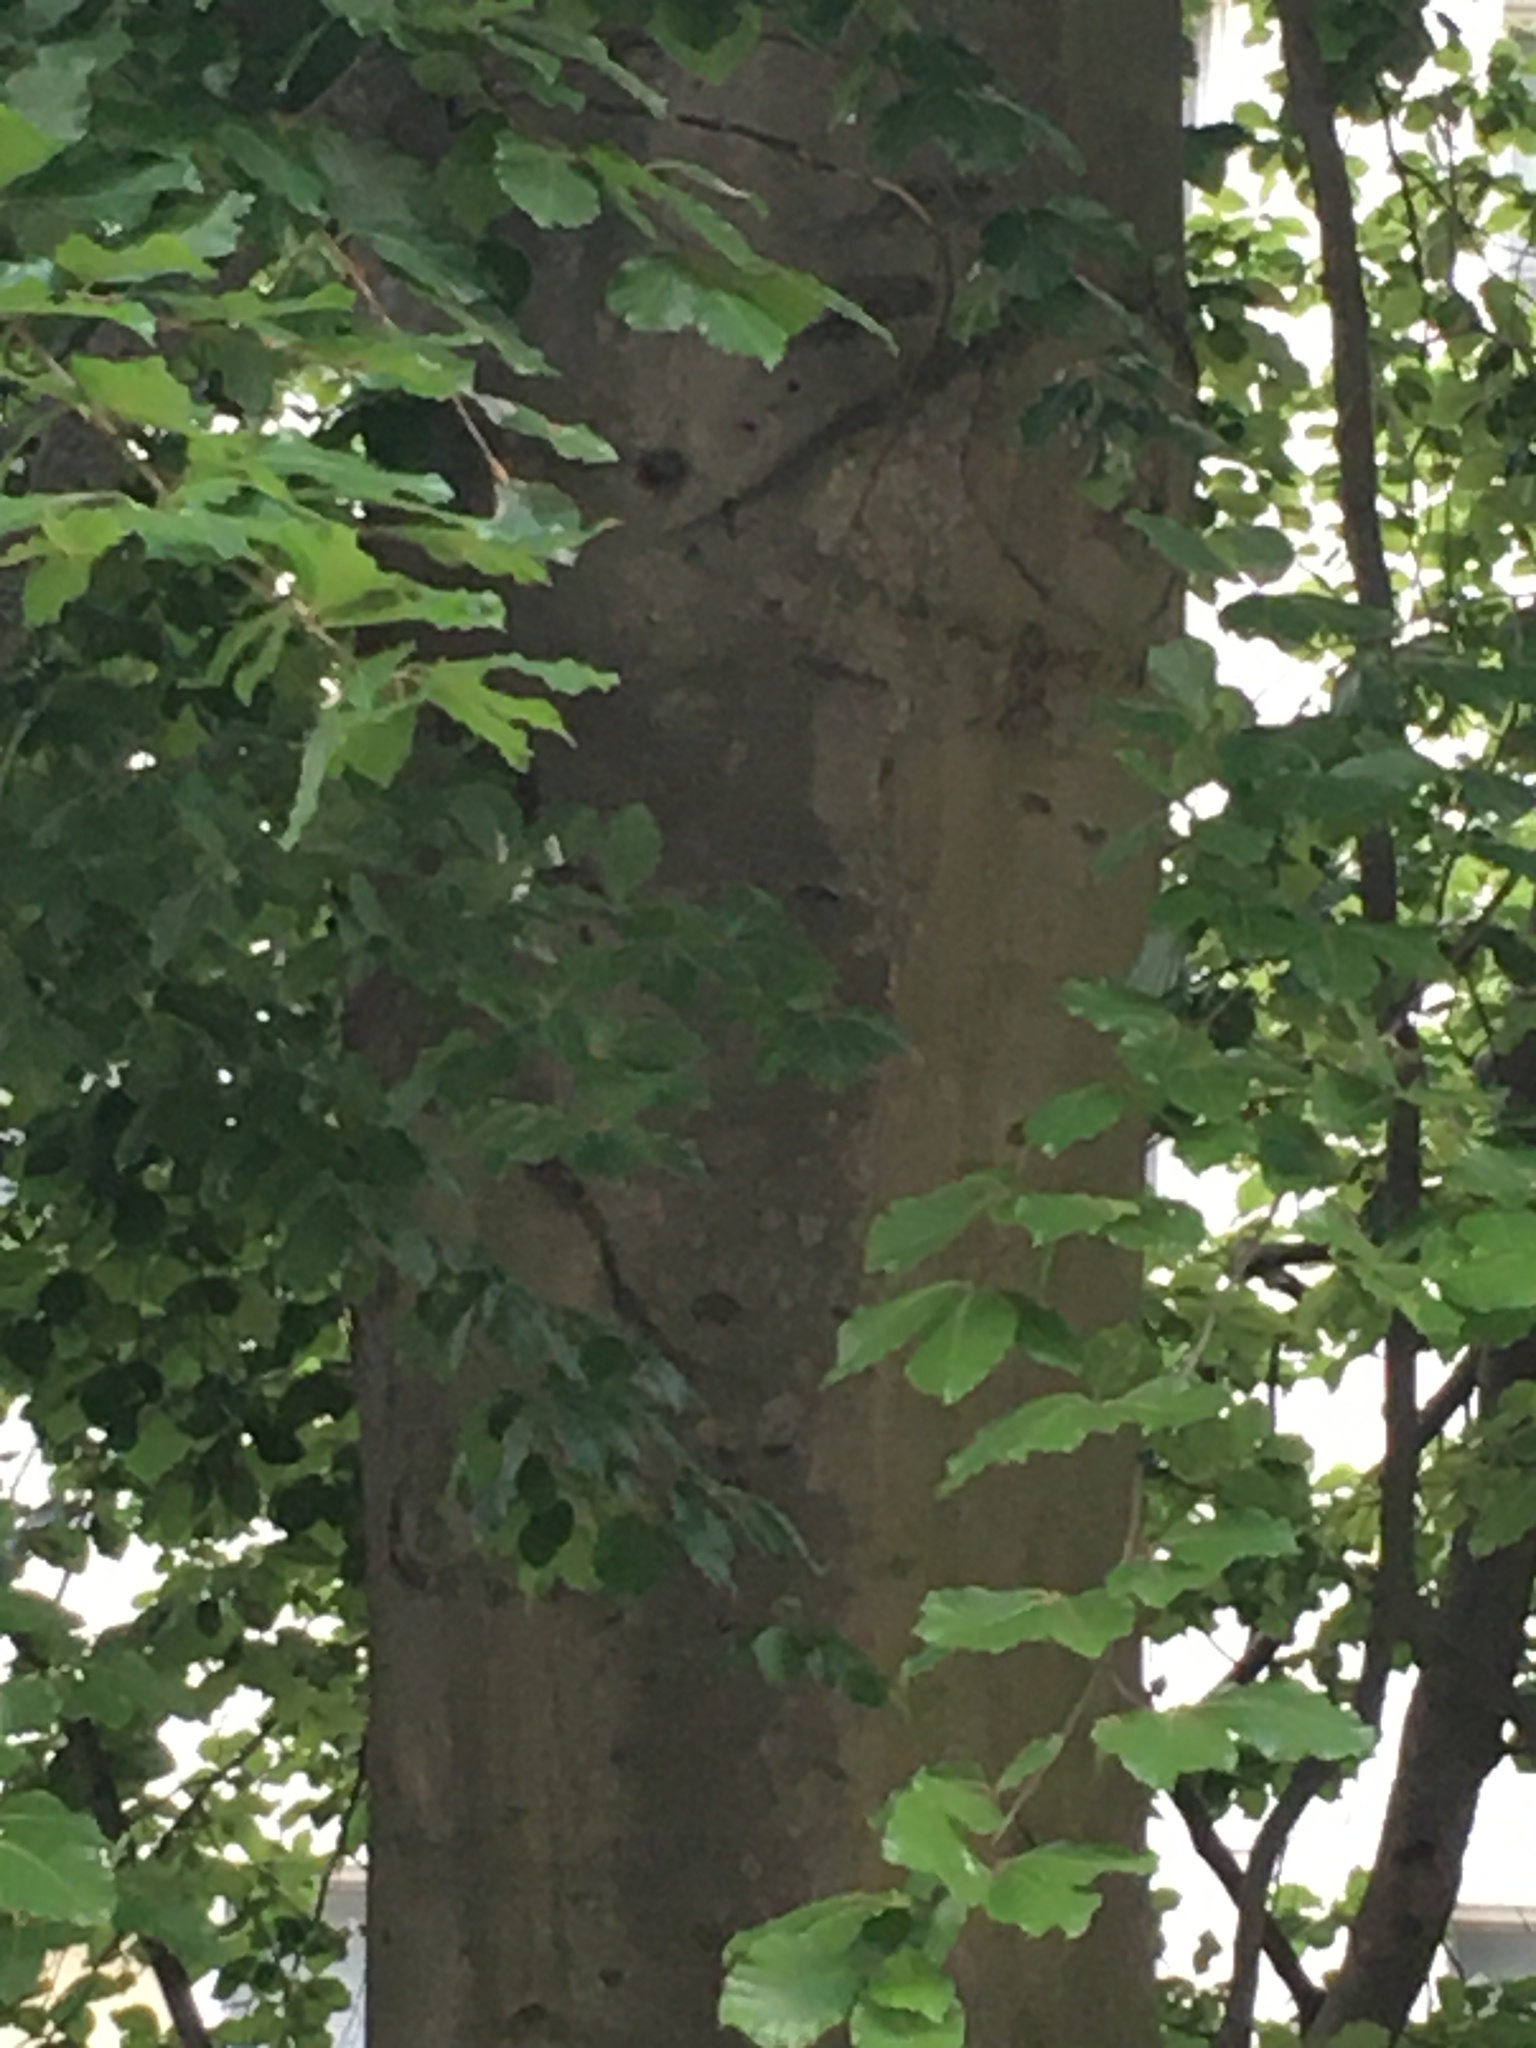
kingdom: Plantae
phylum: Tracheophyta
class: Magnoliopsida
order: Fagales
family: Fagaceae
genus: Fagus
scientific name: Fagus sylvatica
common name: Beech
